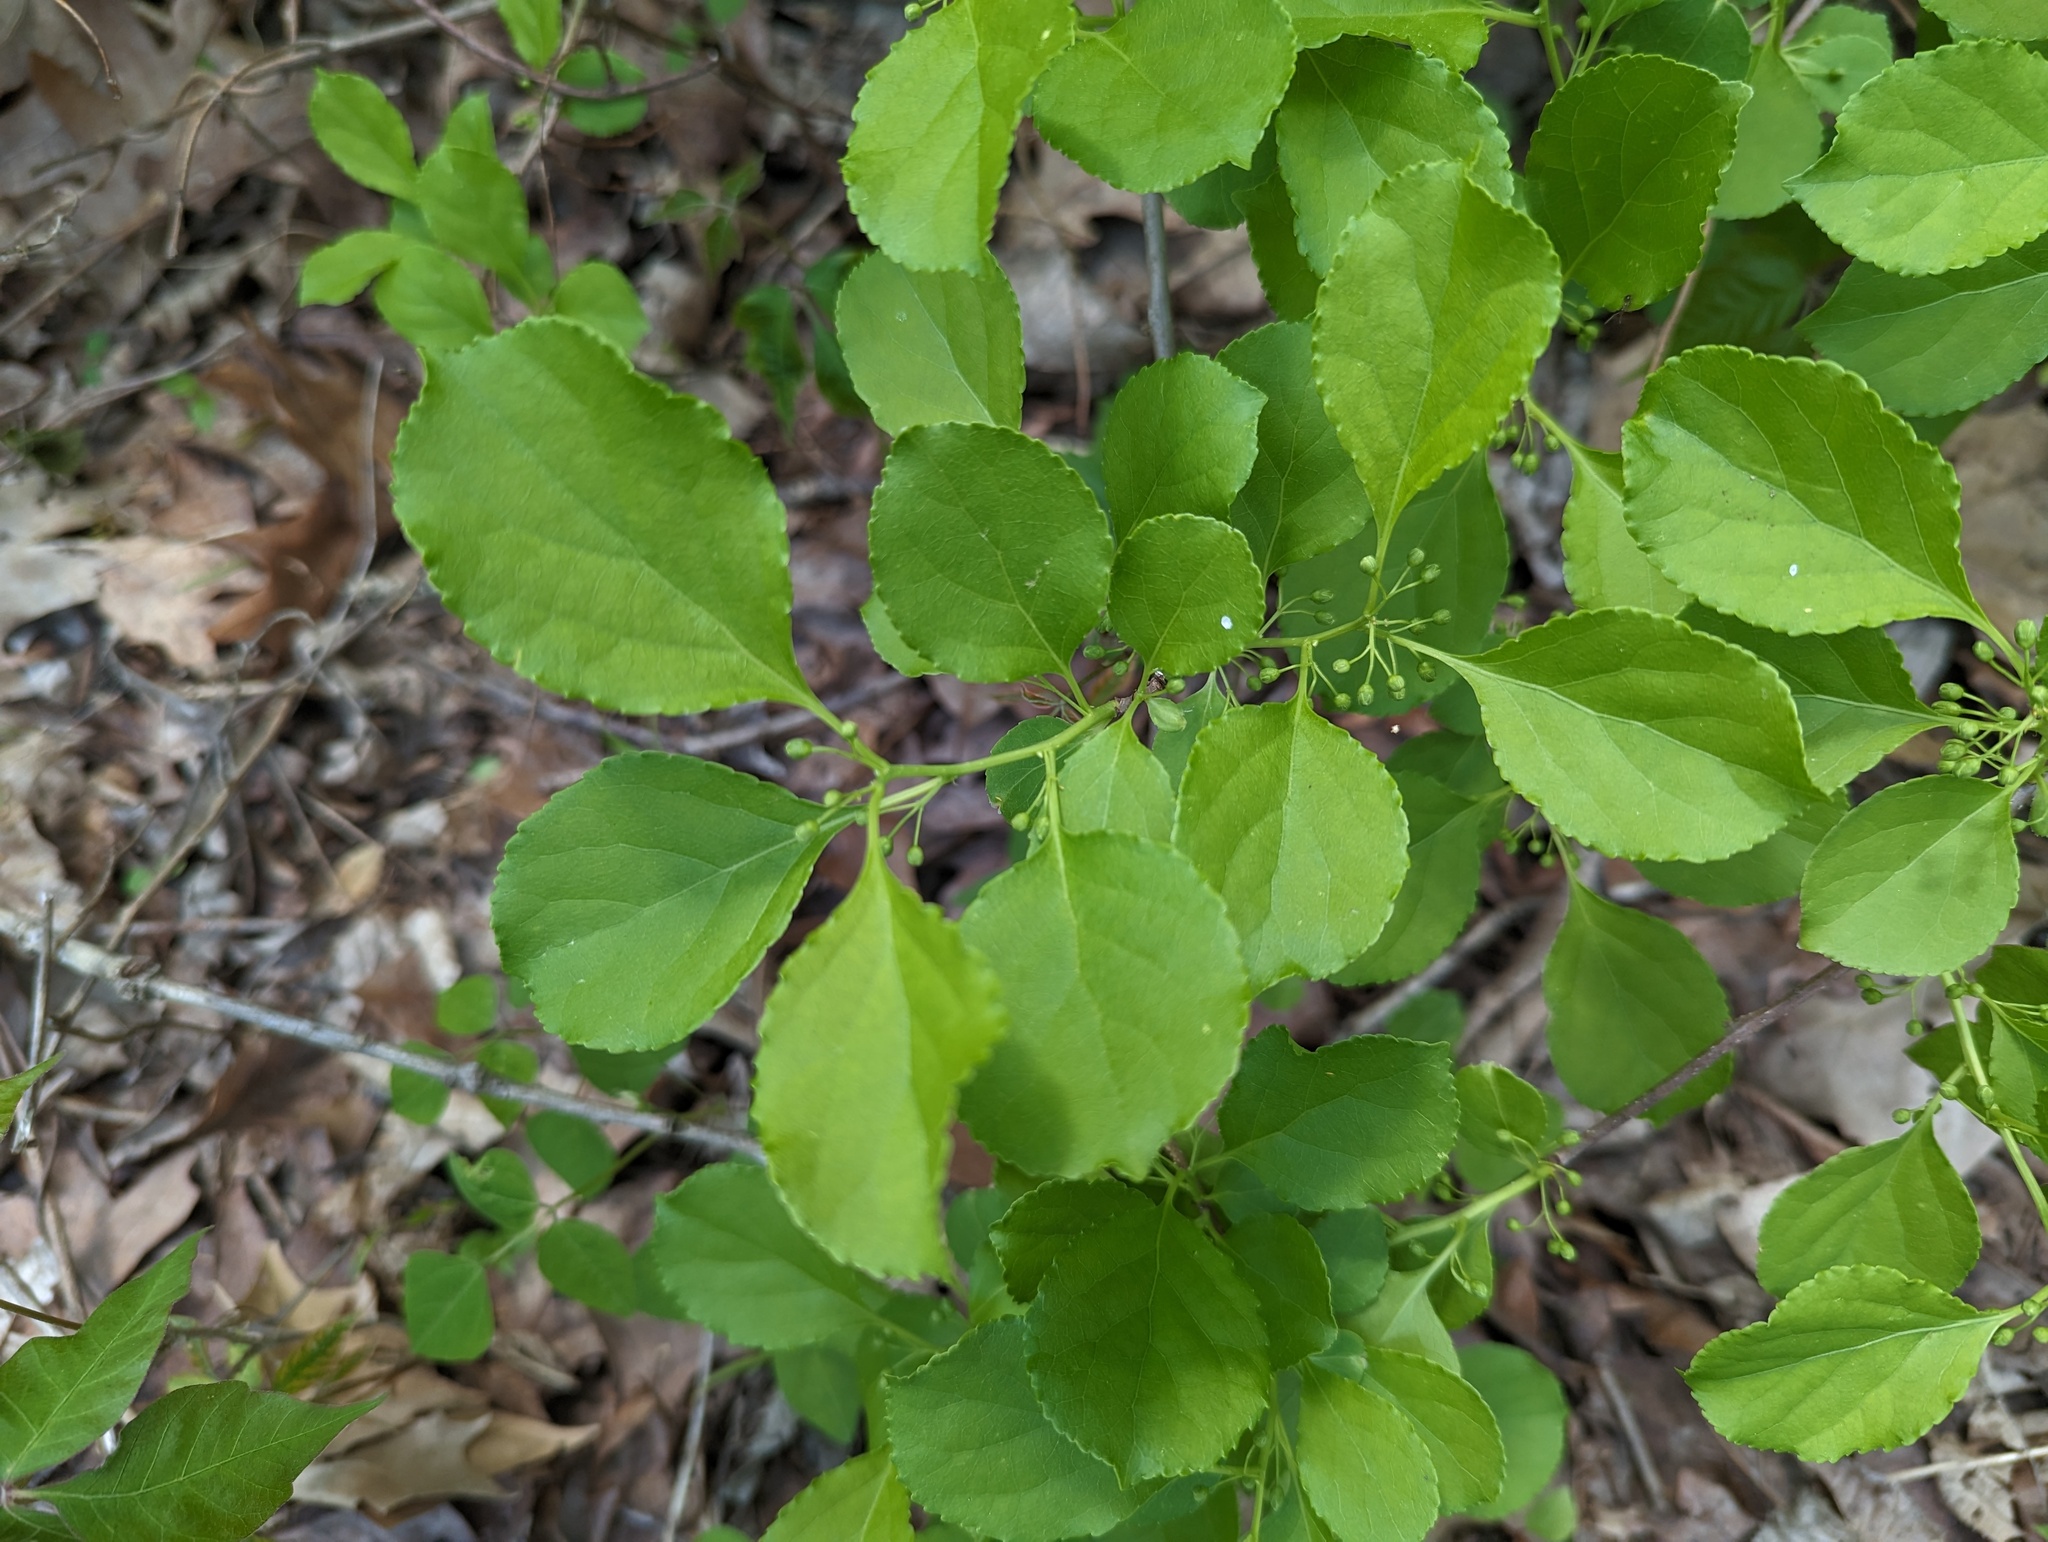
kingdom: Plantae
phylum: Tracheophyta
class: Magnoliopsida
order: Celastrales
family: Celastraceae
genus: Celastrus
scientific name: Celastrus orbiculatus
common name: Oriental bittersweet
